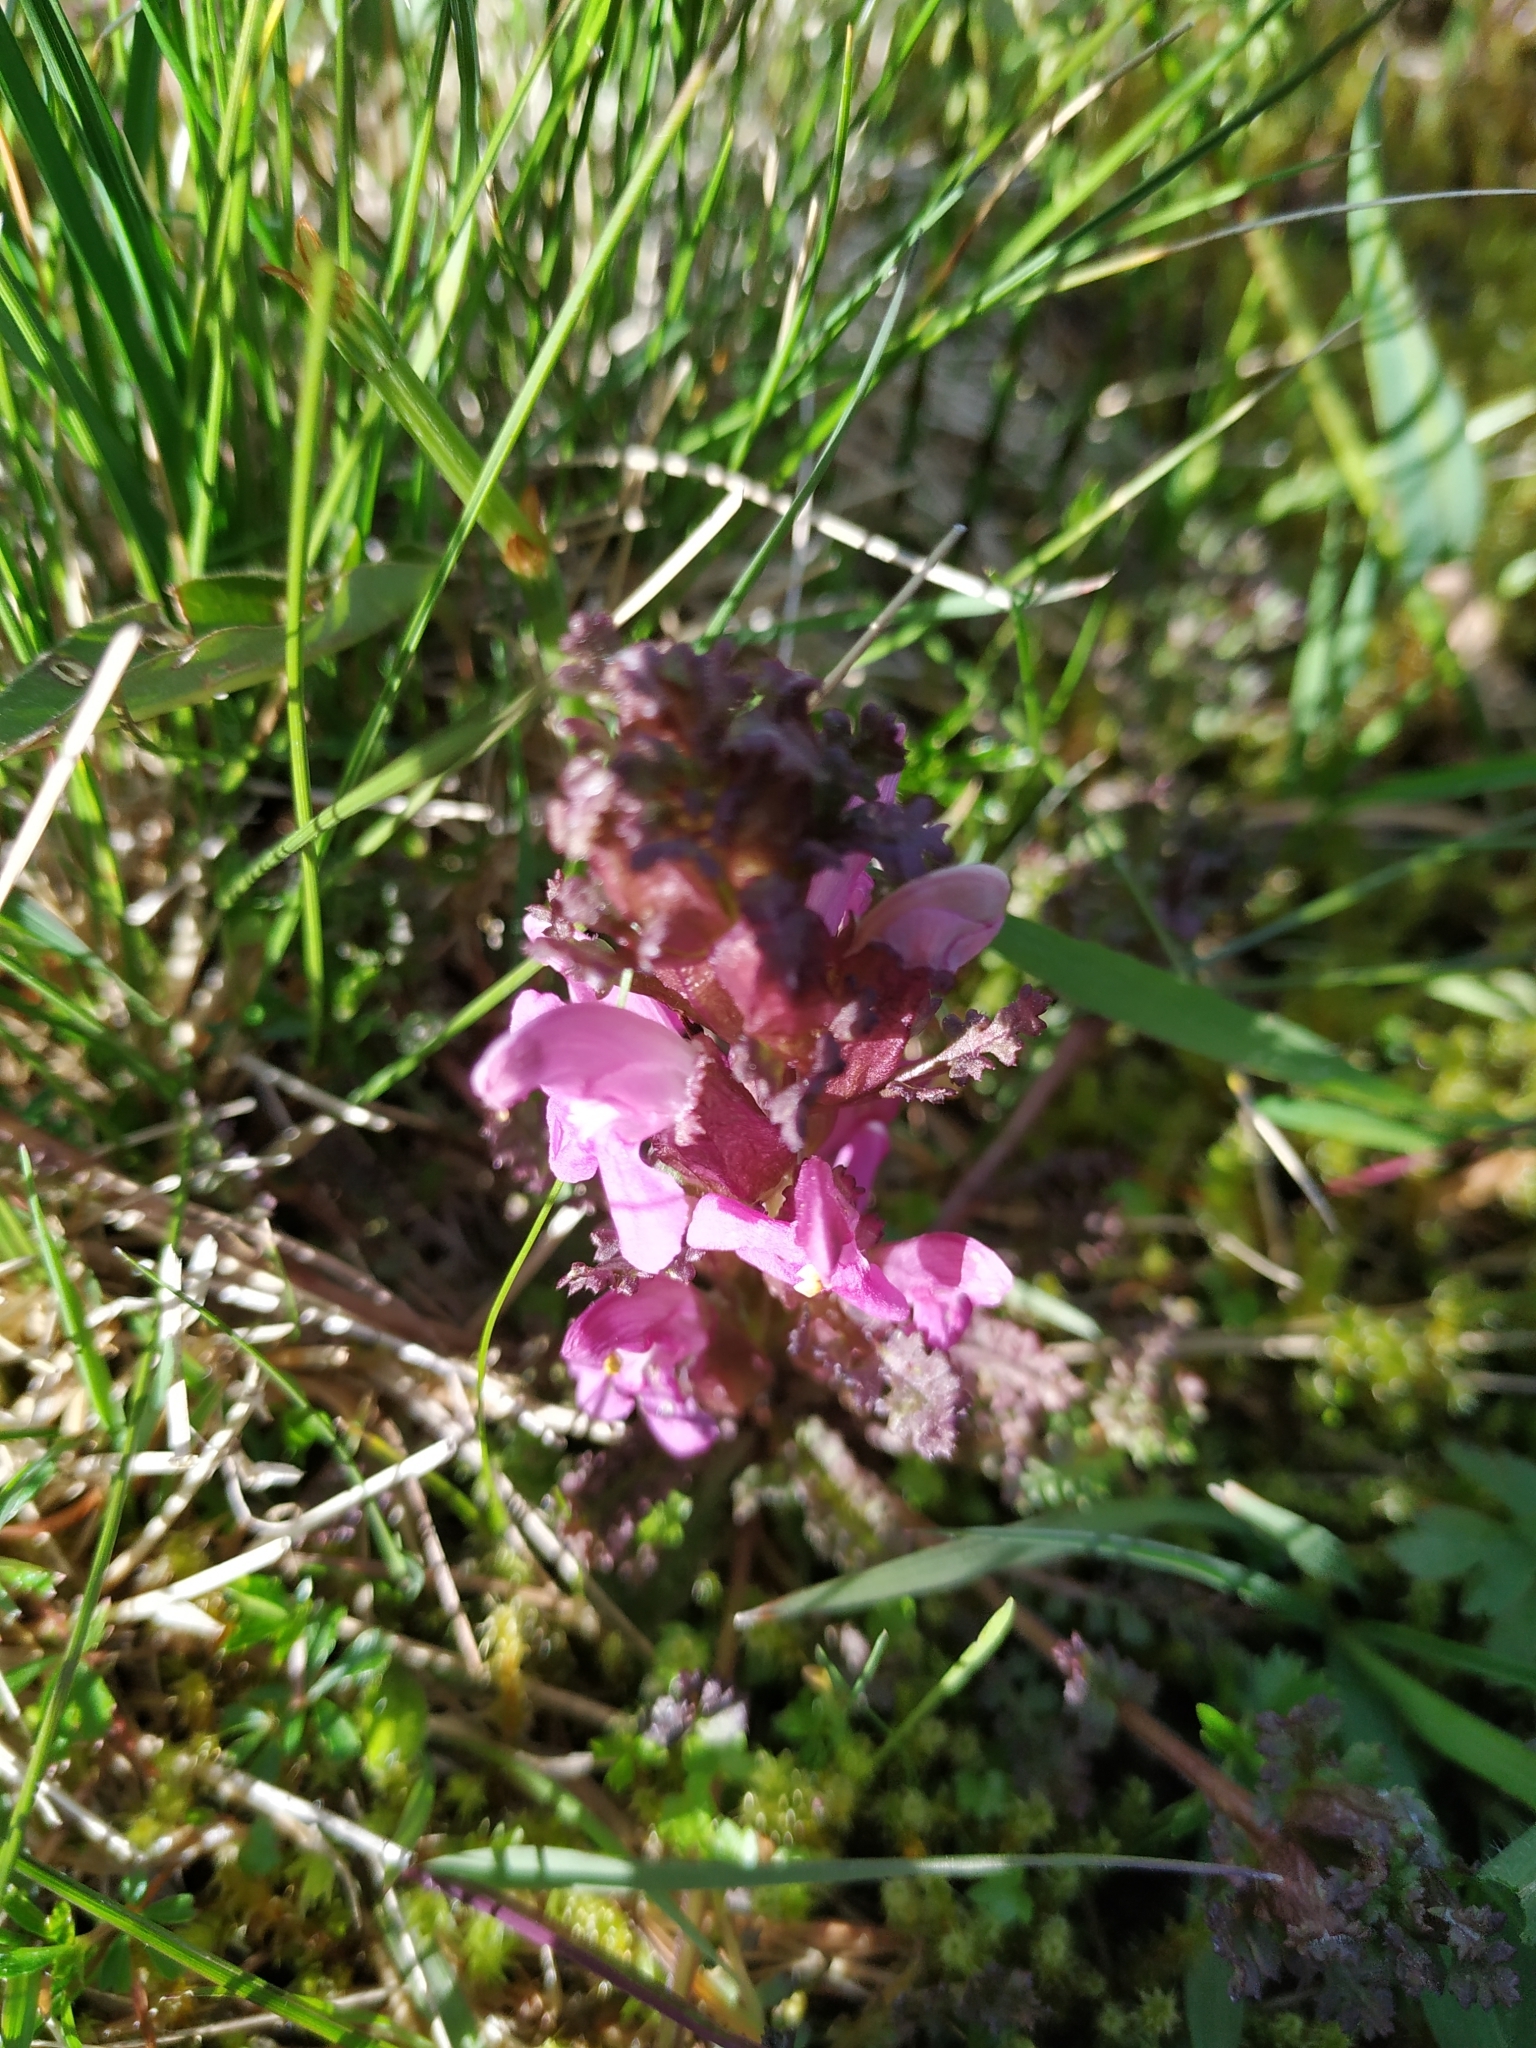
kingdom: Plantae
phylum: Tracheophyta
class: Magnoliopsida
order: Lamiales
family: Orobanchaceae
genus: Pedicularis
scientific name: Pedicularis sylvatica
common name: Lousewort
